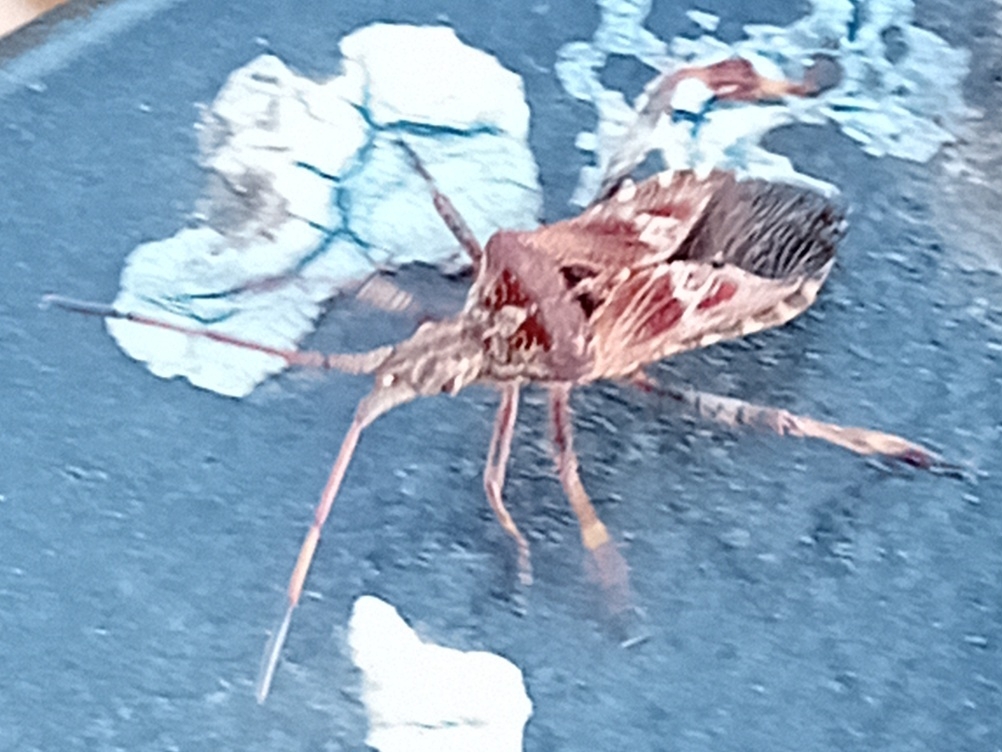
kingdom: Animalia
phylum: Arthropoda
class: Insecta
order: Hemiptera
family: Coreidae
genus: Leptoglossus
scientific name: Leptoglossus occidentalis
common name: Western conifer-seed bug
